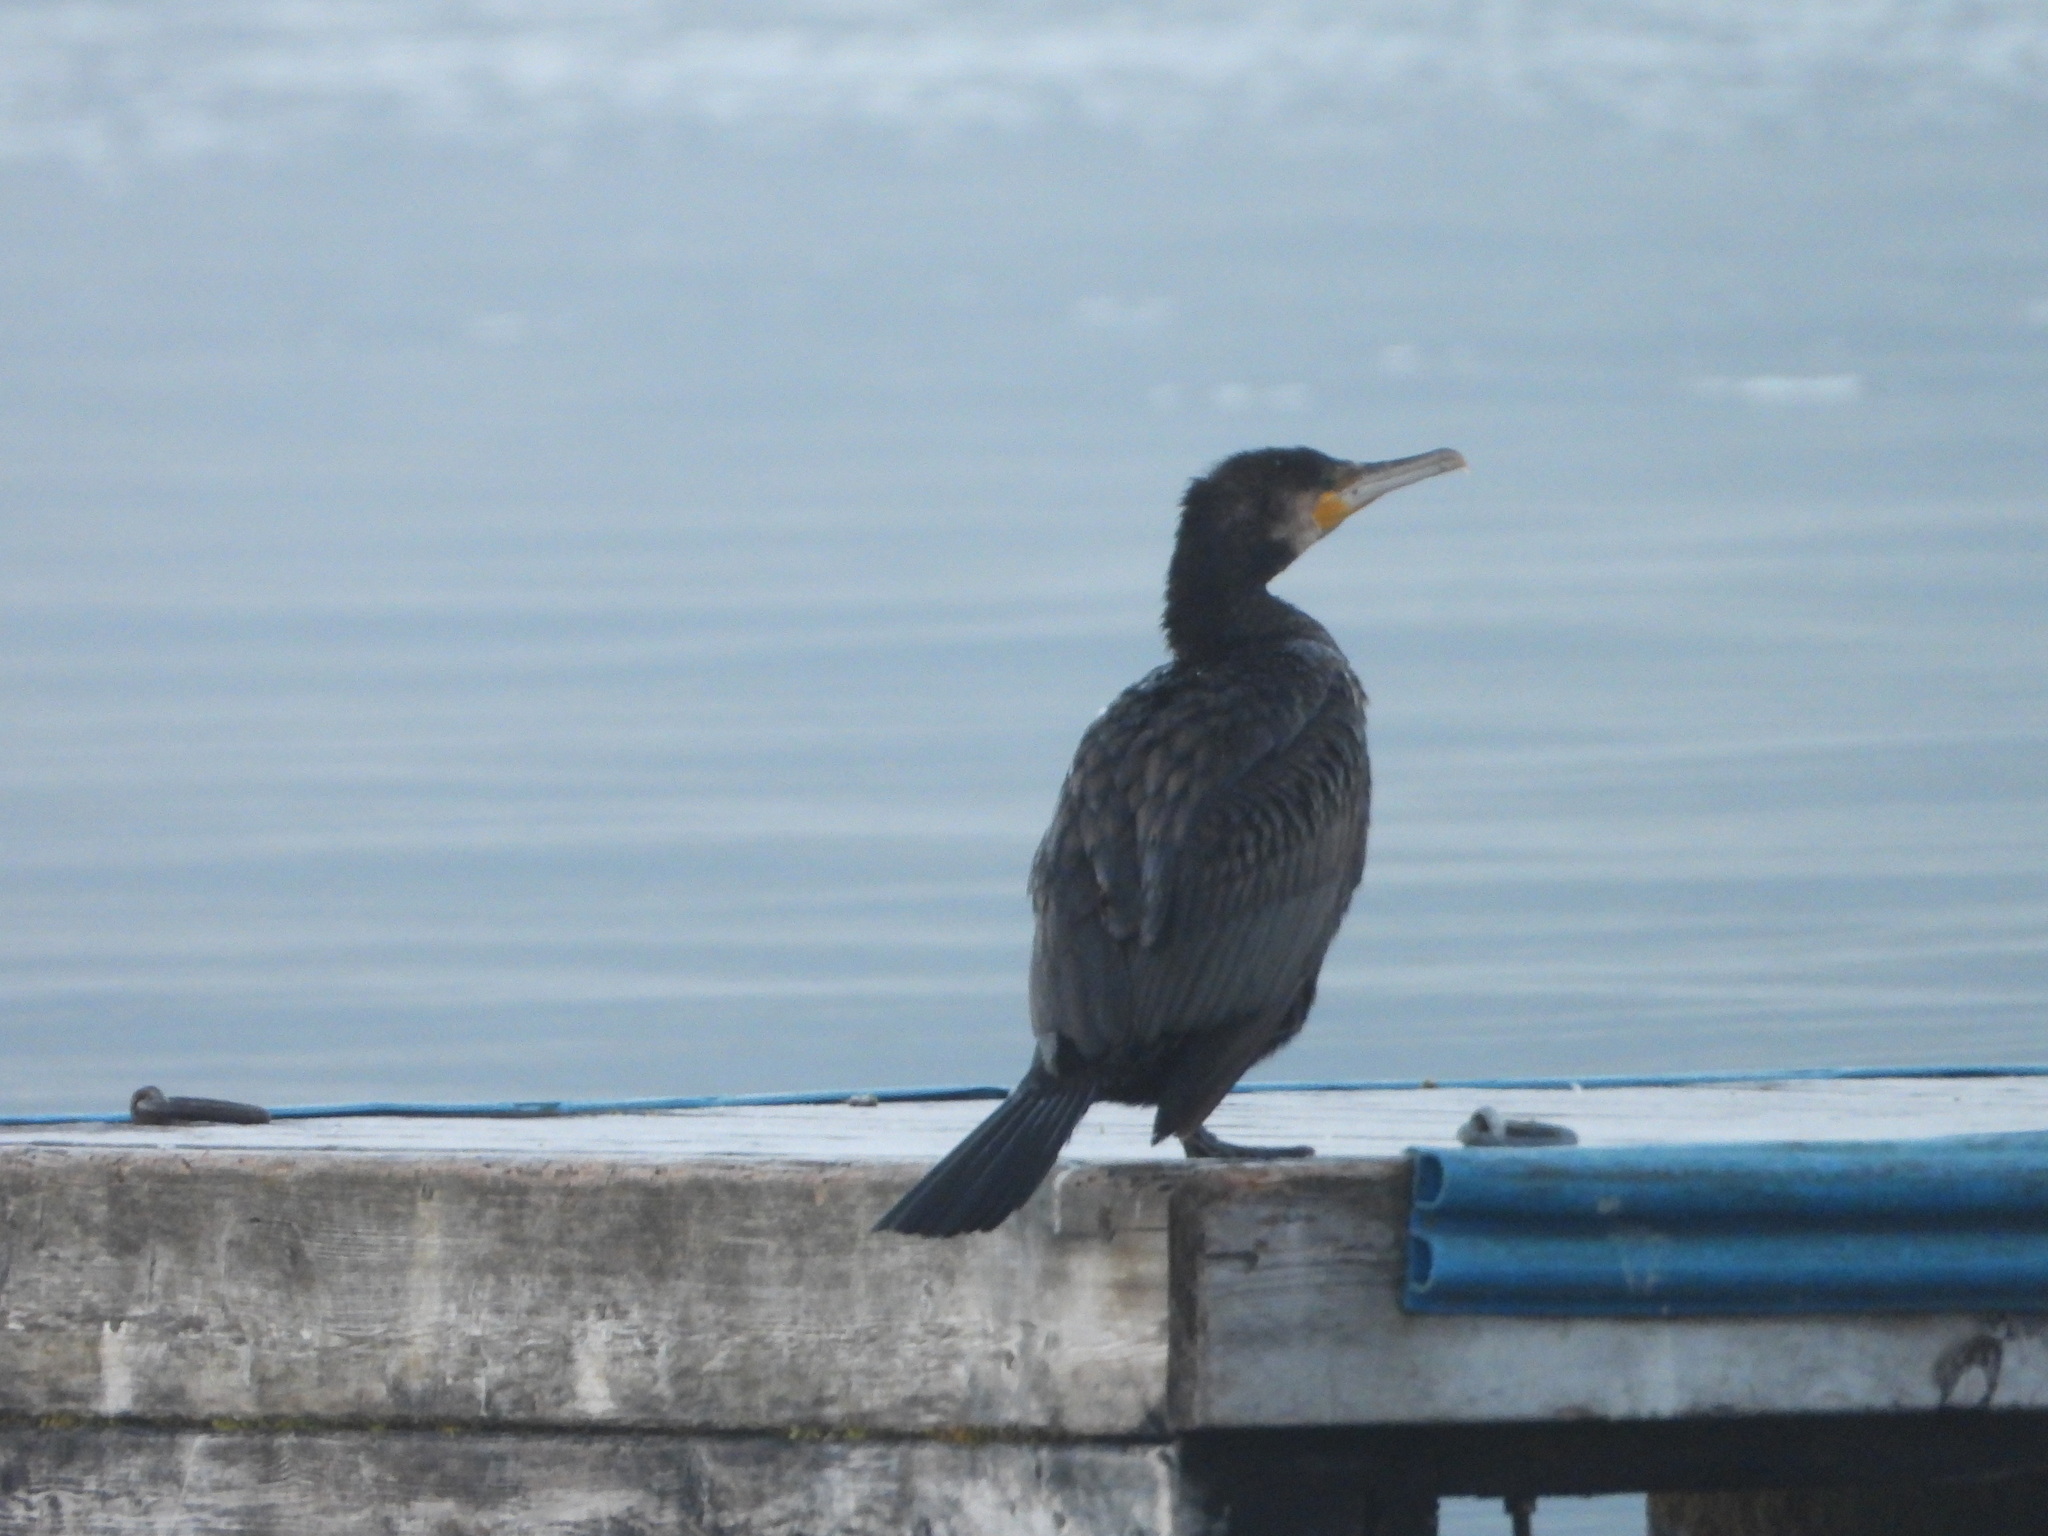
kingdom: Animalia
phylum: Chordata
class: Aves
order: Suliformes
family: Phalacrocoracidae
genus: Phalacrocorax
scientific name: Phalacrocorax carbo
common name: Great cormorant
